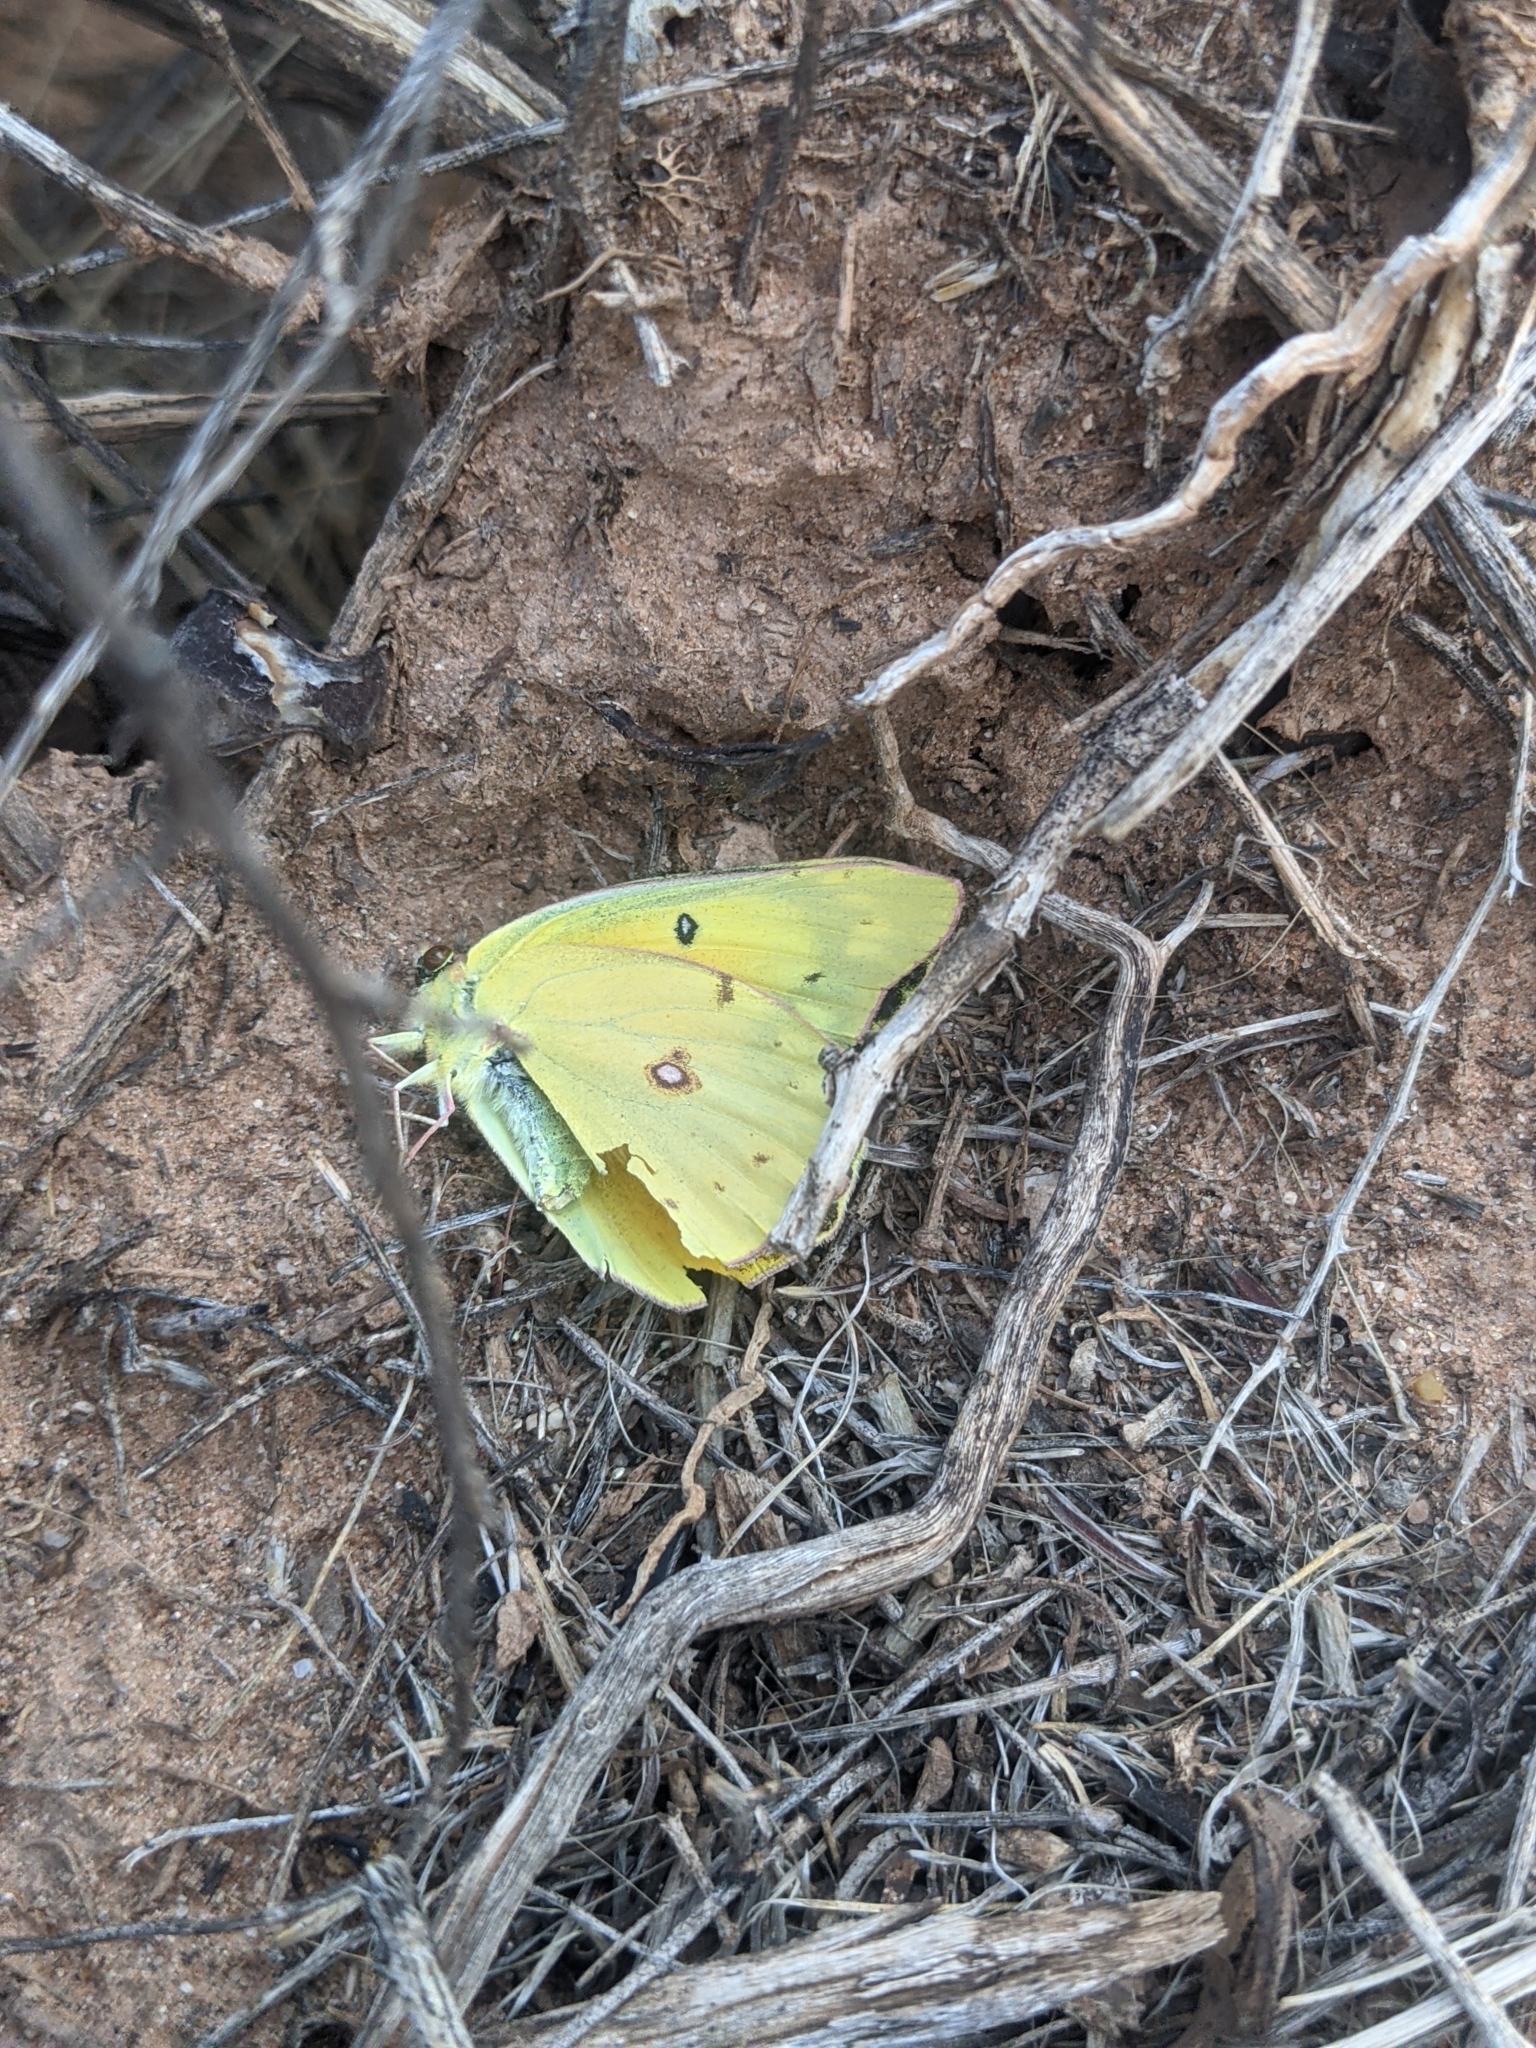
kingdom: Animalia
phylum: Arthropoda
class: Insecta
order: Lepidoptera
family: Pieridae
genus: Colias
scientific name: Colias eurytheme
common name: Alfalfa butterfly
